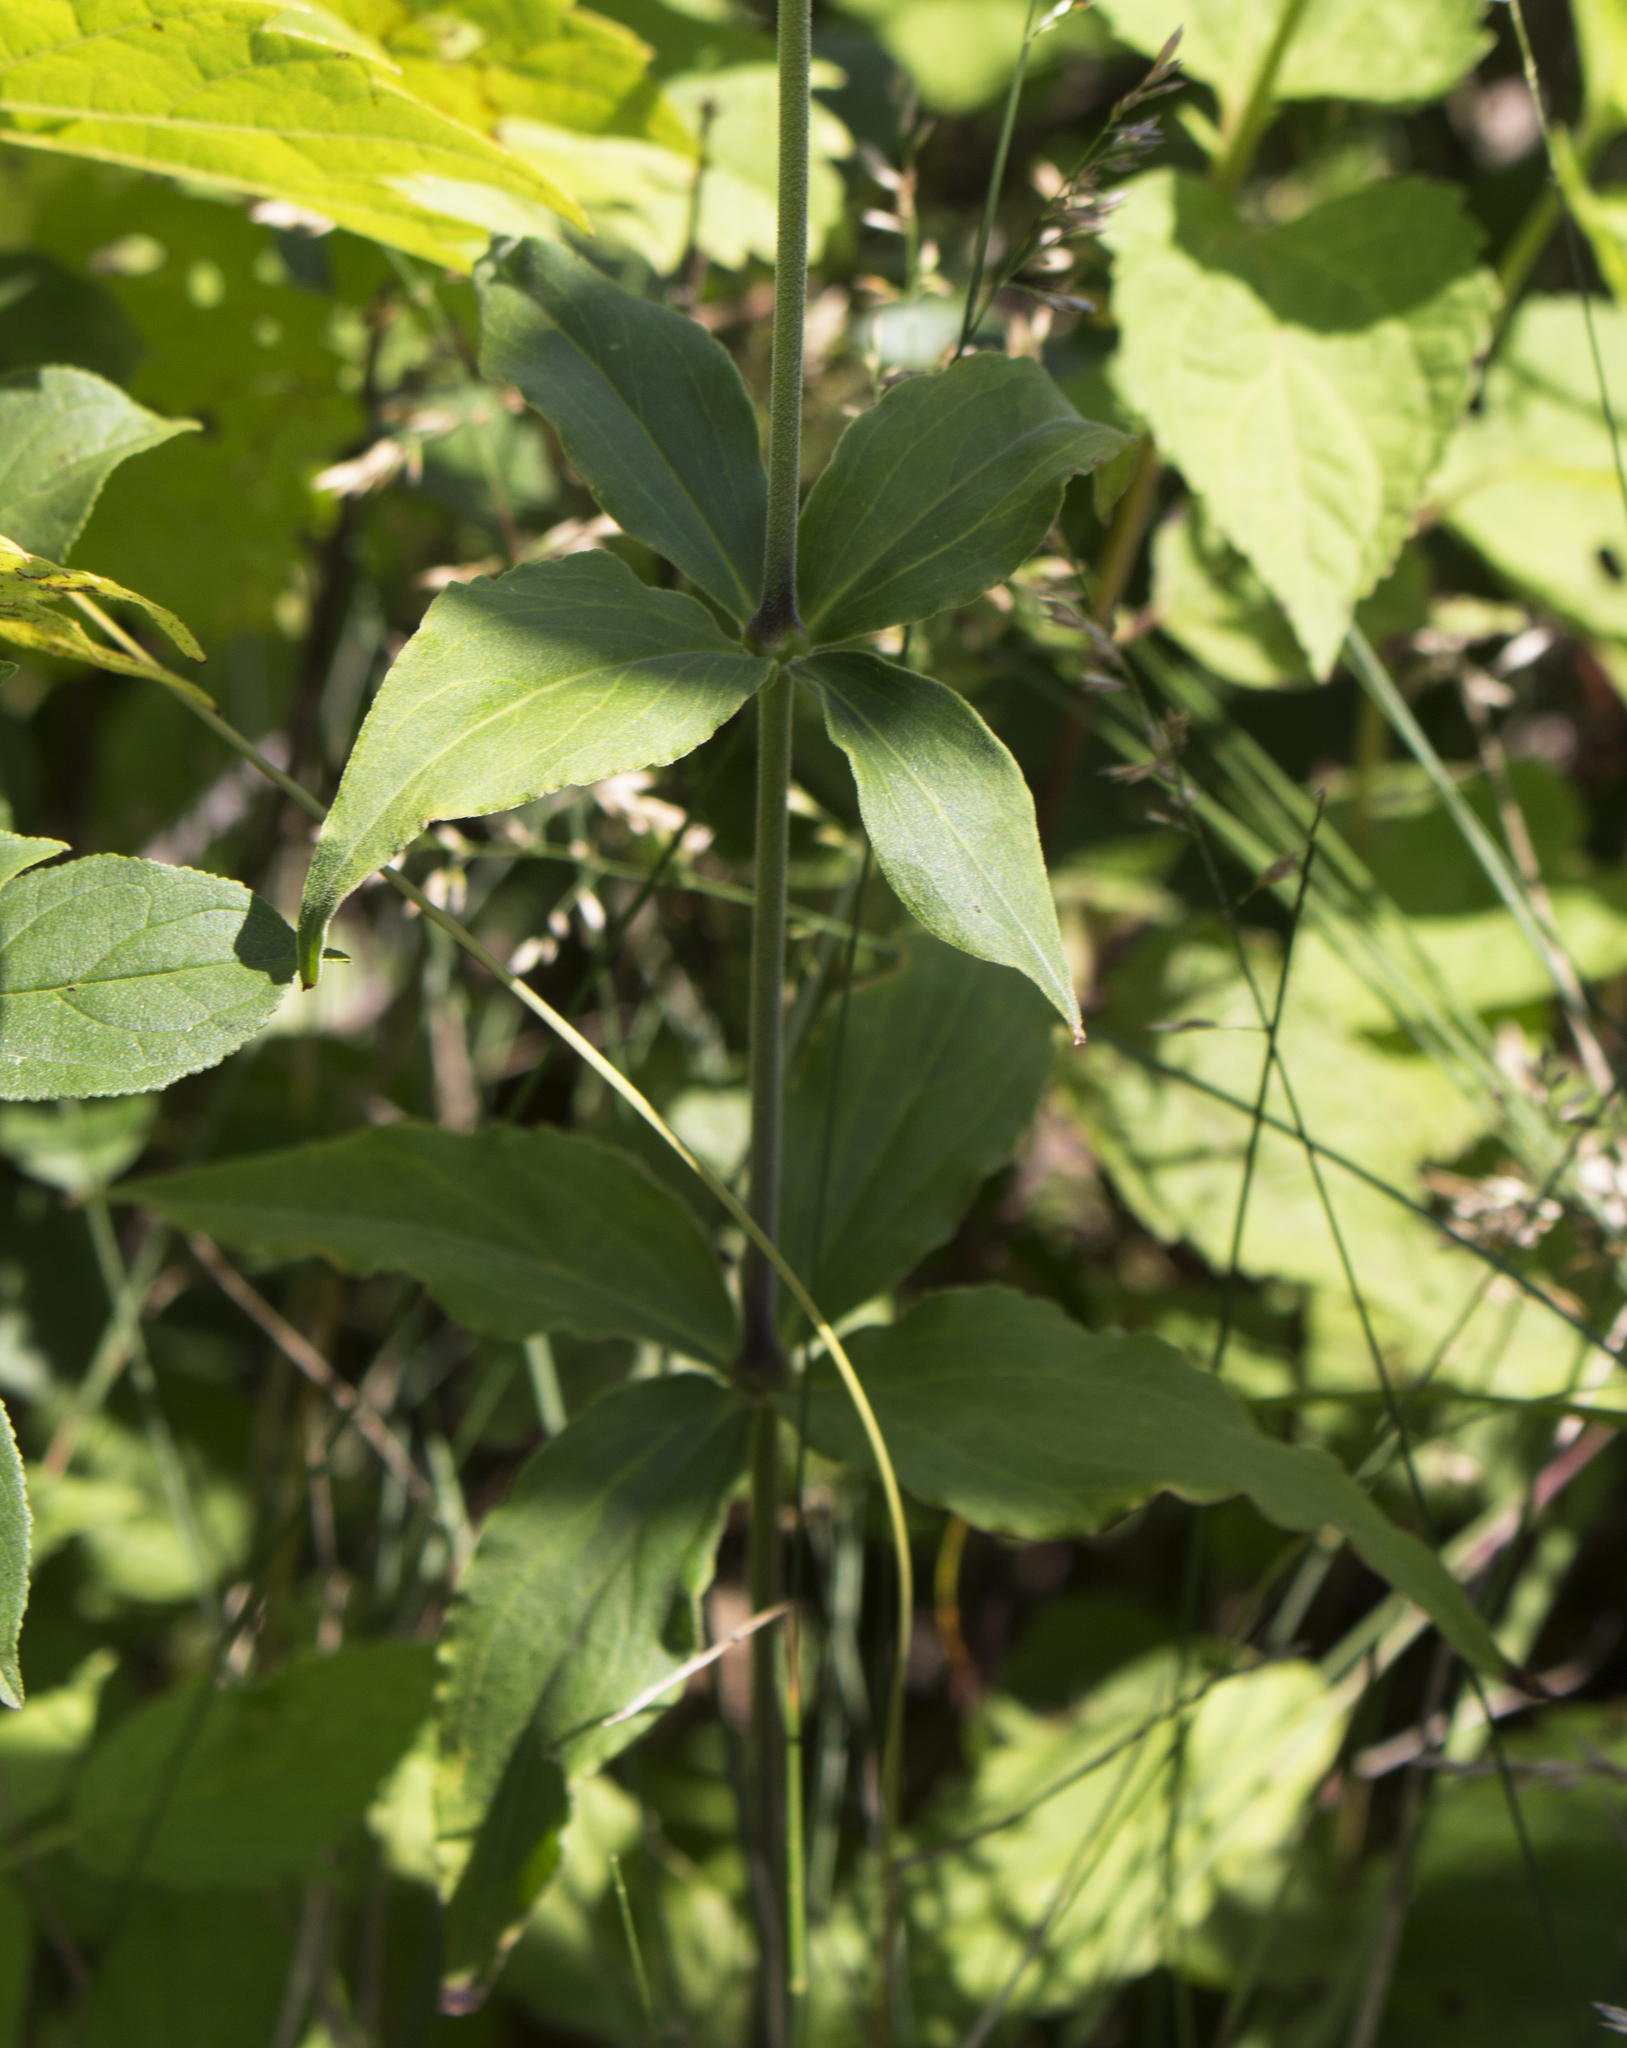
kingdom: Plantae
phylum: Tracheophyta
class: Magnoliopsida
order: Caryophyllales
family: Caryophyllaceae
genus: Silene
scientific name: Silene stellata
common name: Starry campion
